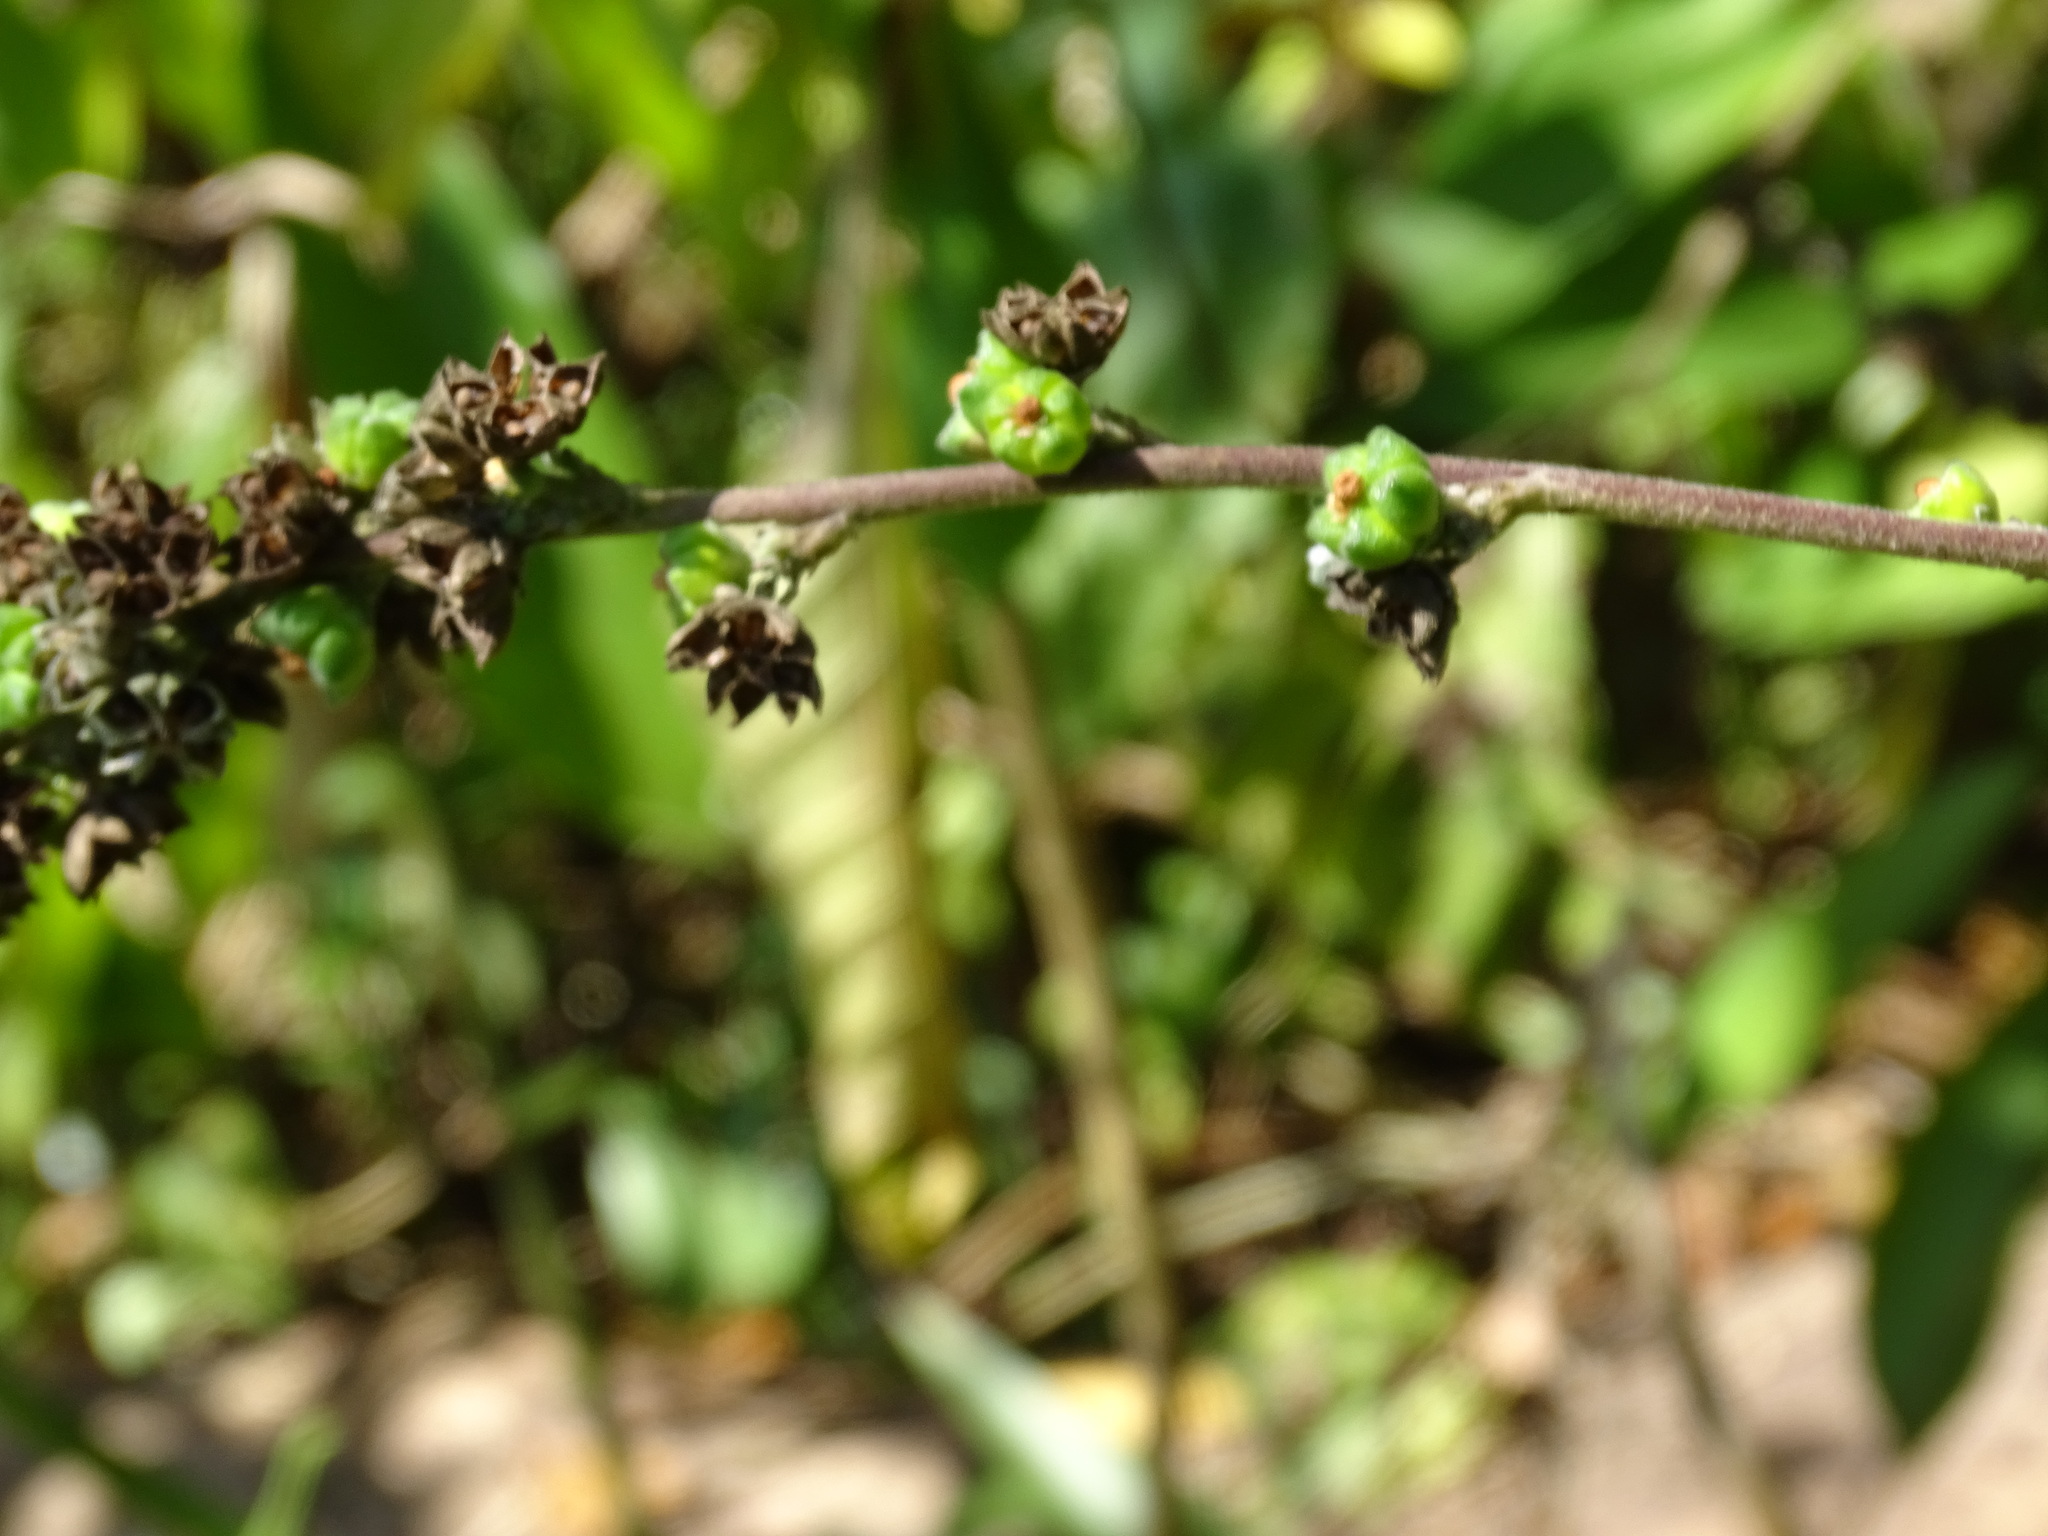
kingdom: Plantae
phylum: Tracheophyta
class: Magnoliopsida
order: Malvales
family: Malvaceae
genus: Wissadula
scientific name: Wissadula contracta
